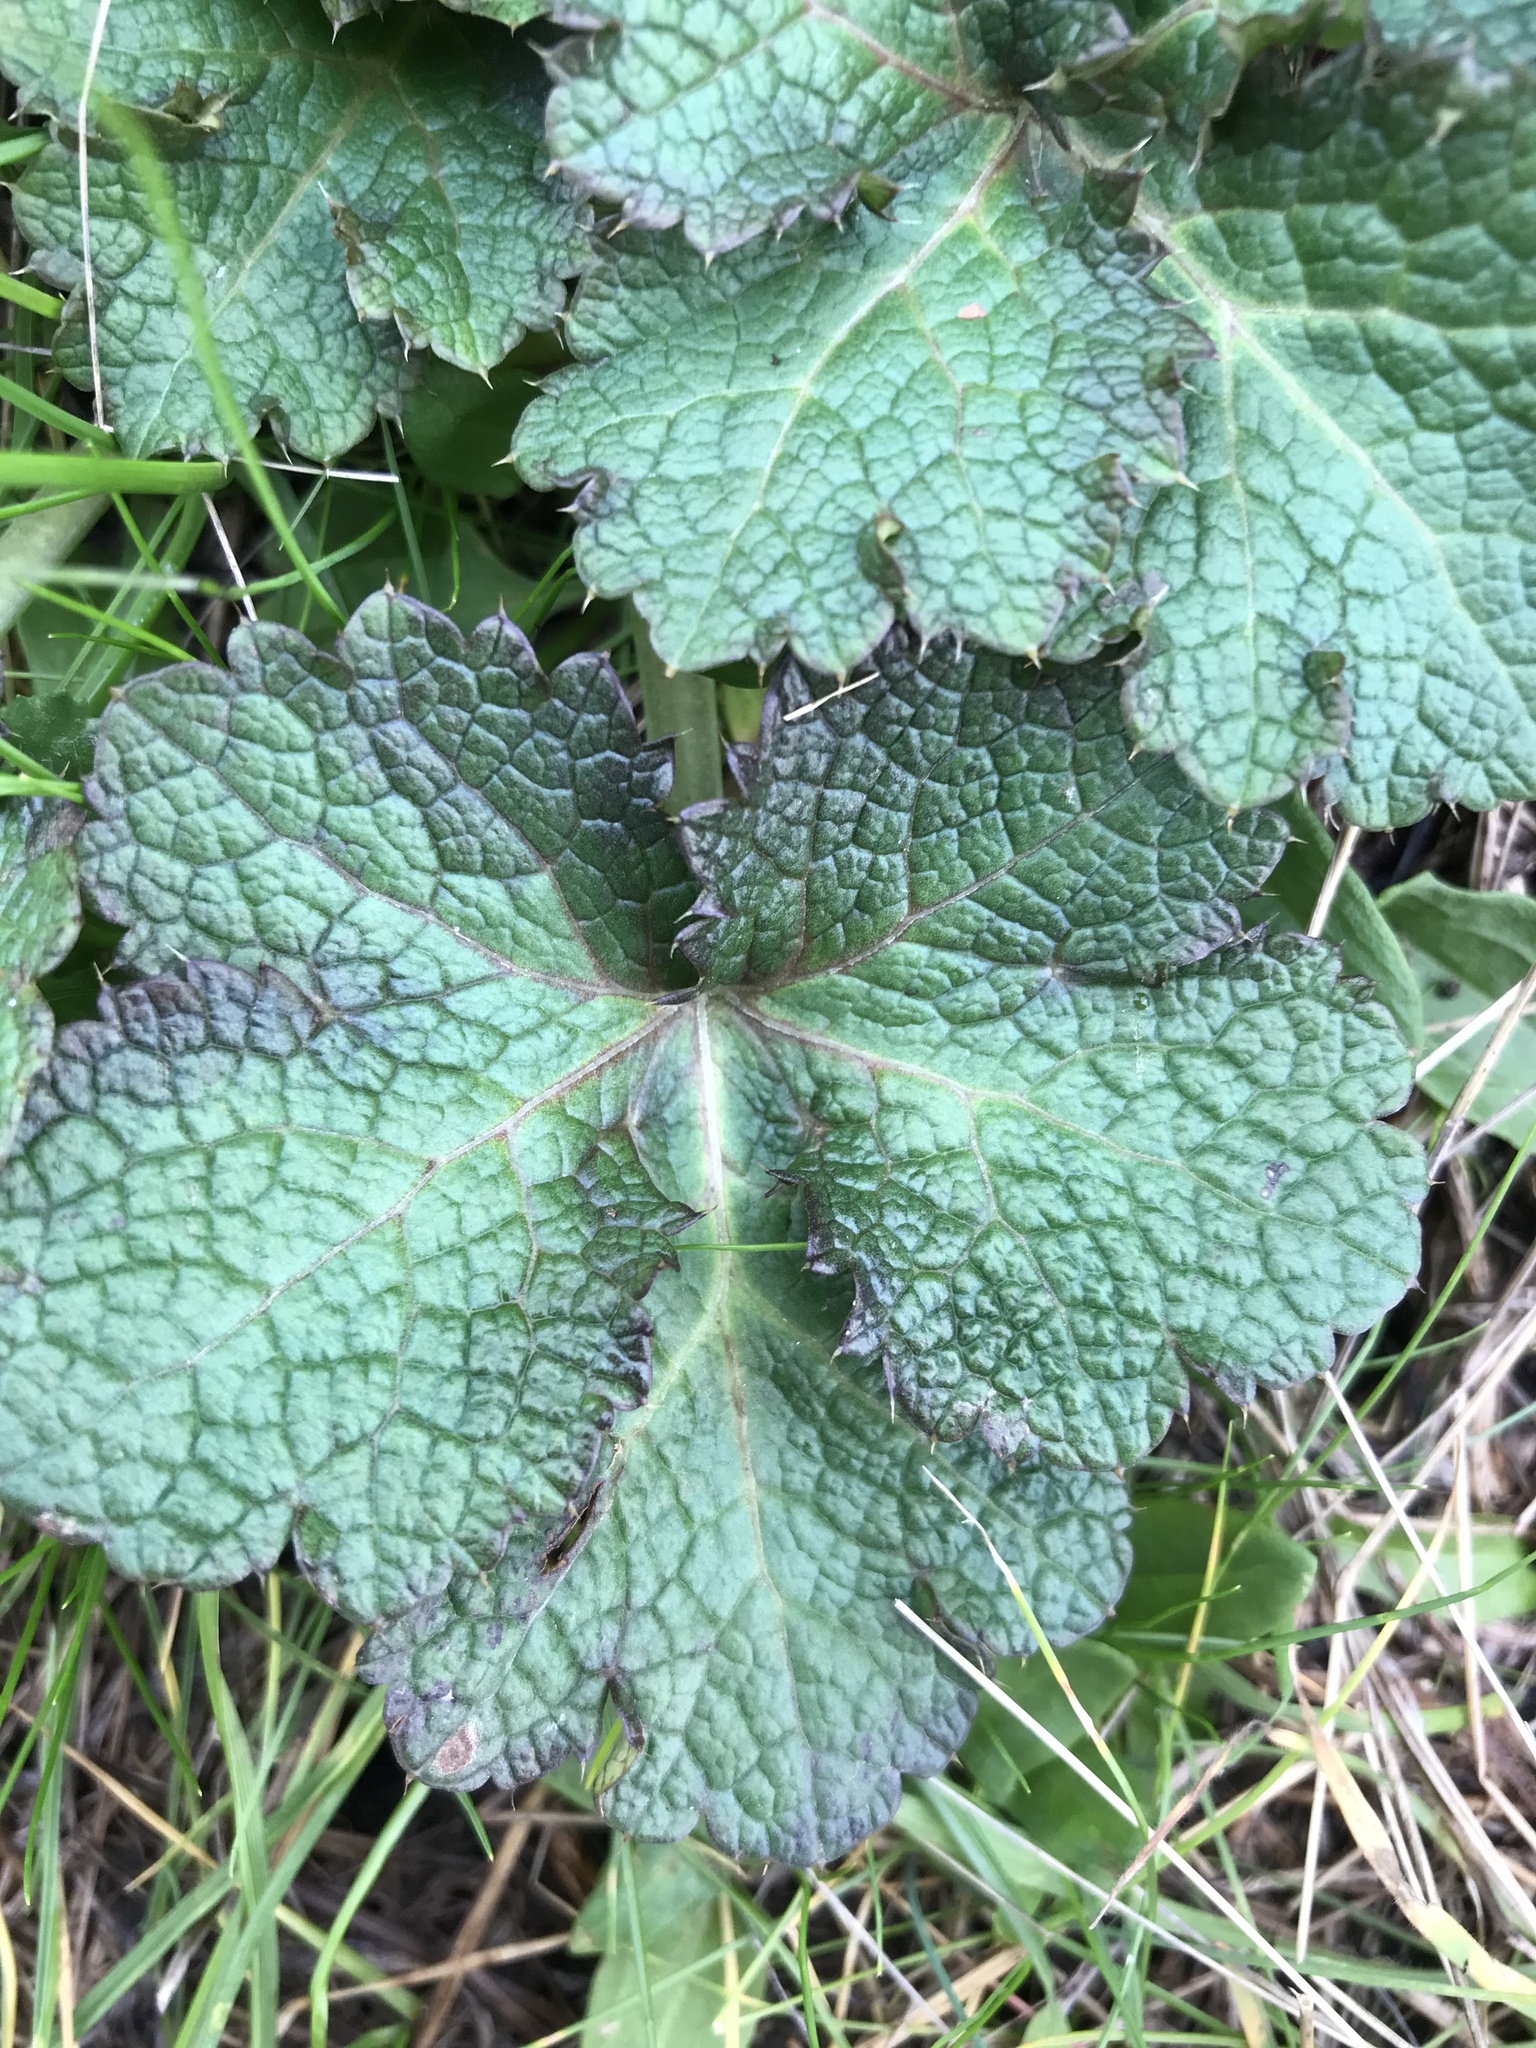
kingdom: Plantae
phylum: Tracheophyta
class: Magnoliopsida
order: Apiales
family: Apiaceae
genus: Sanicula
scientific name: Sanicula crassicaulis
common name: Western snakeroot
